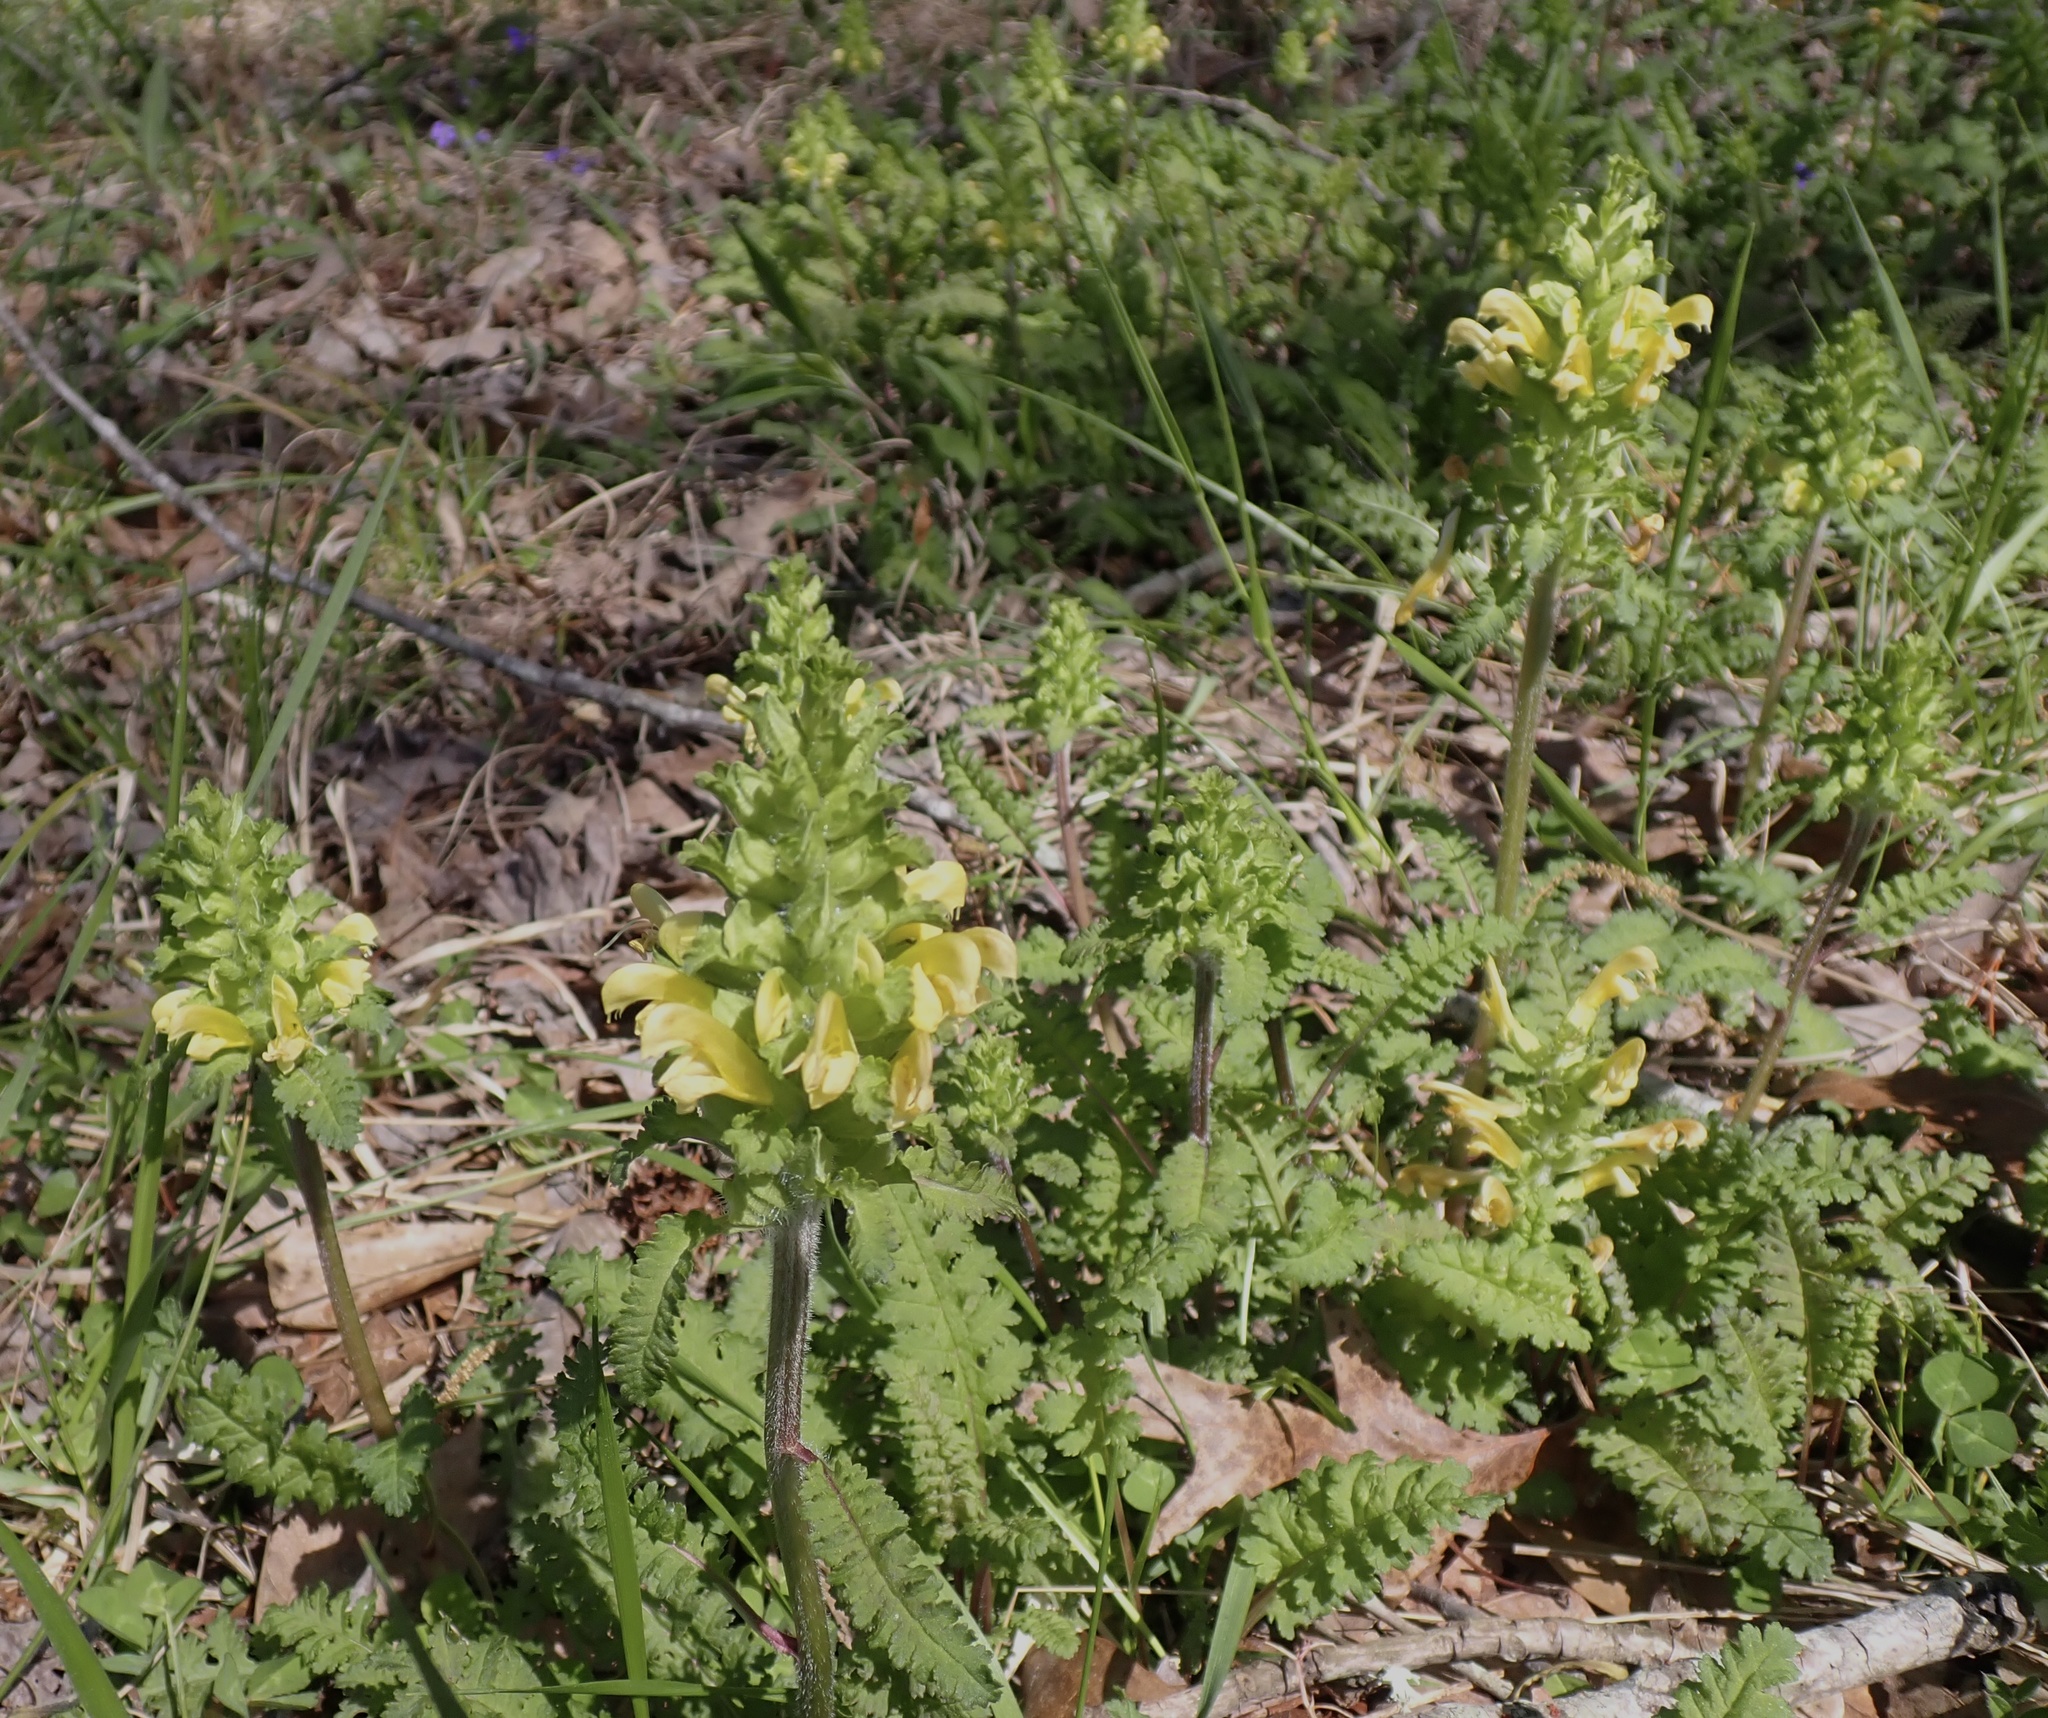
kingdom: Plantae
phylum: Tracheophyta
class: Magnoliopsida
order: Lamiales
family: Orobanchaceae
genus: Pedicularis
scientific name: Pedicularis canadensis
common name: Early lousewort
